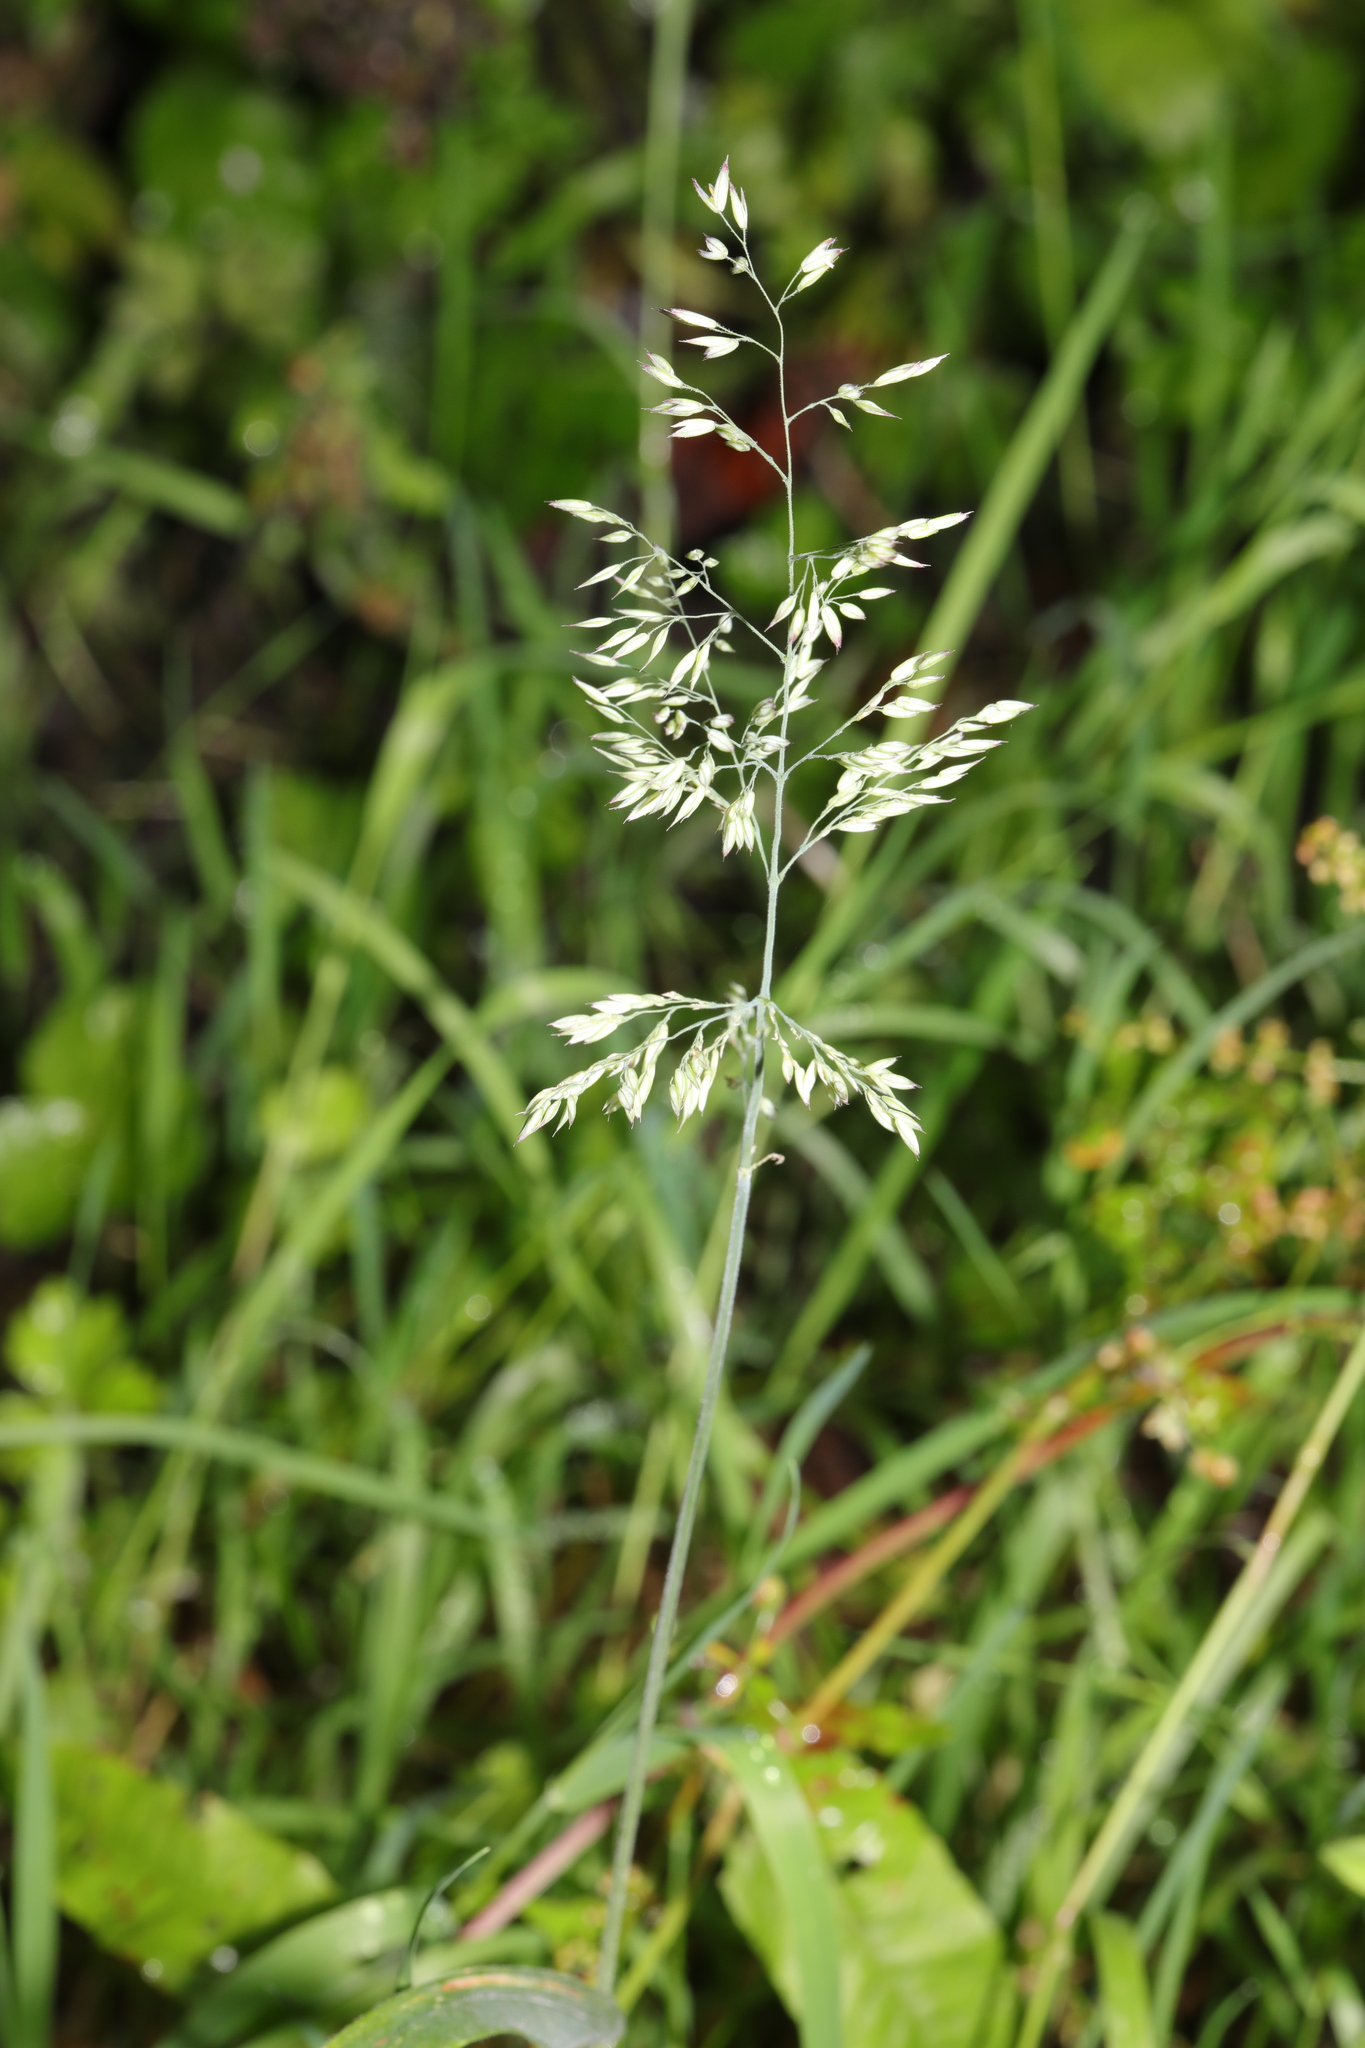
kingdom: Plantae
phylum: Tracheophyta
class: Liliopsida
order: Poales
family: Poaceae
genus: Holcus
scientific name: Holcus mollis
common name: Creeping velvetgrass
